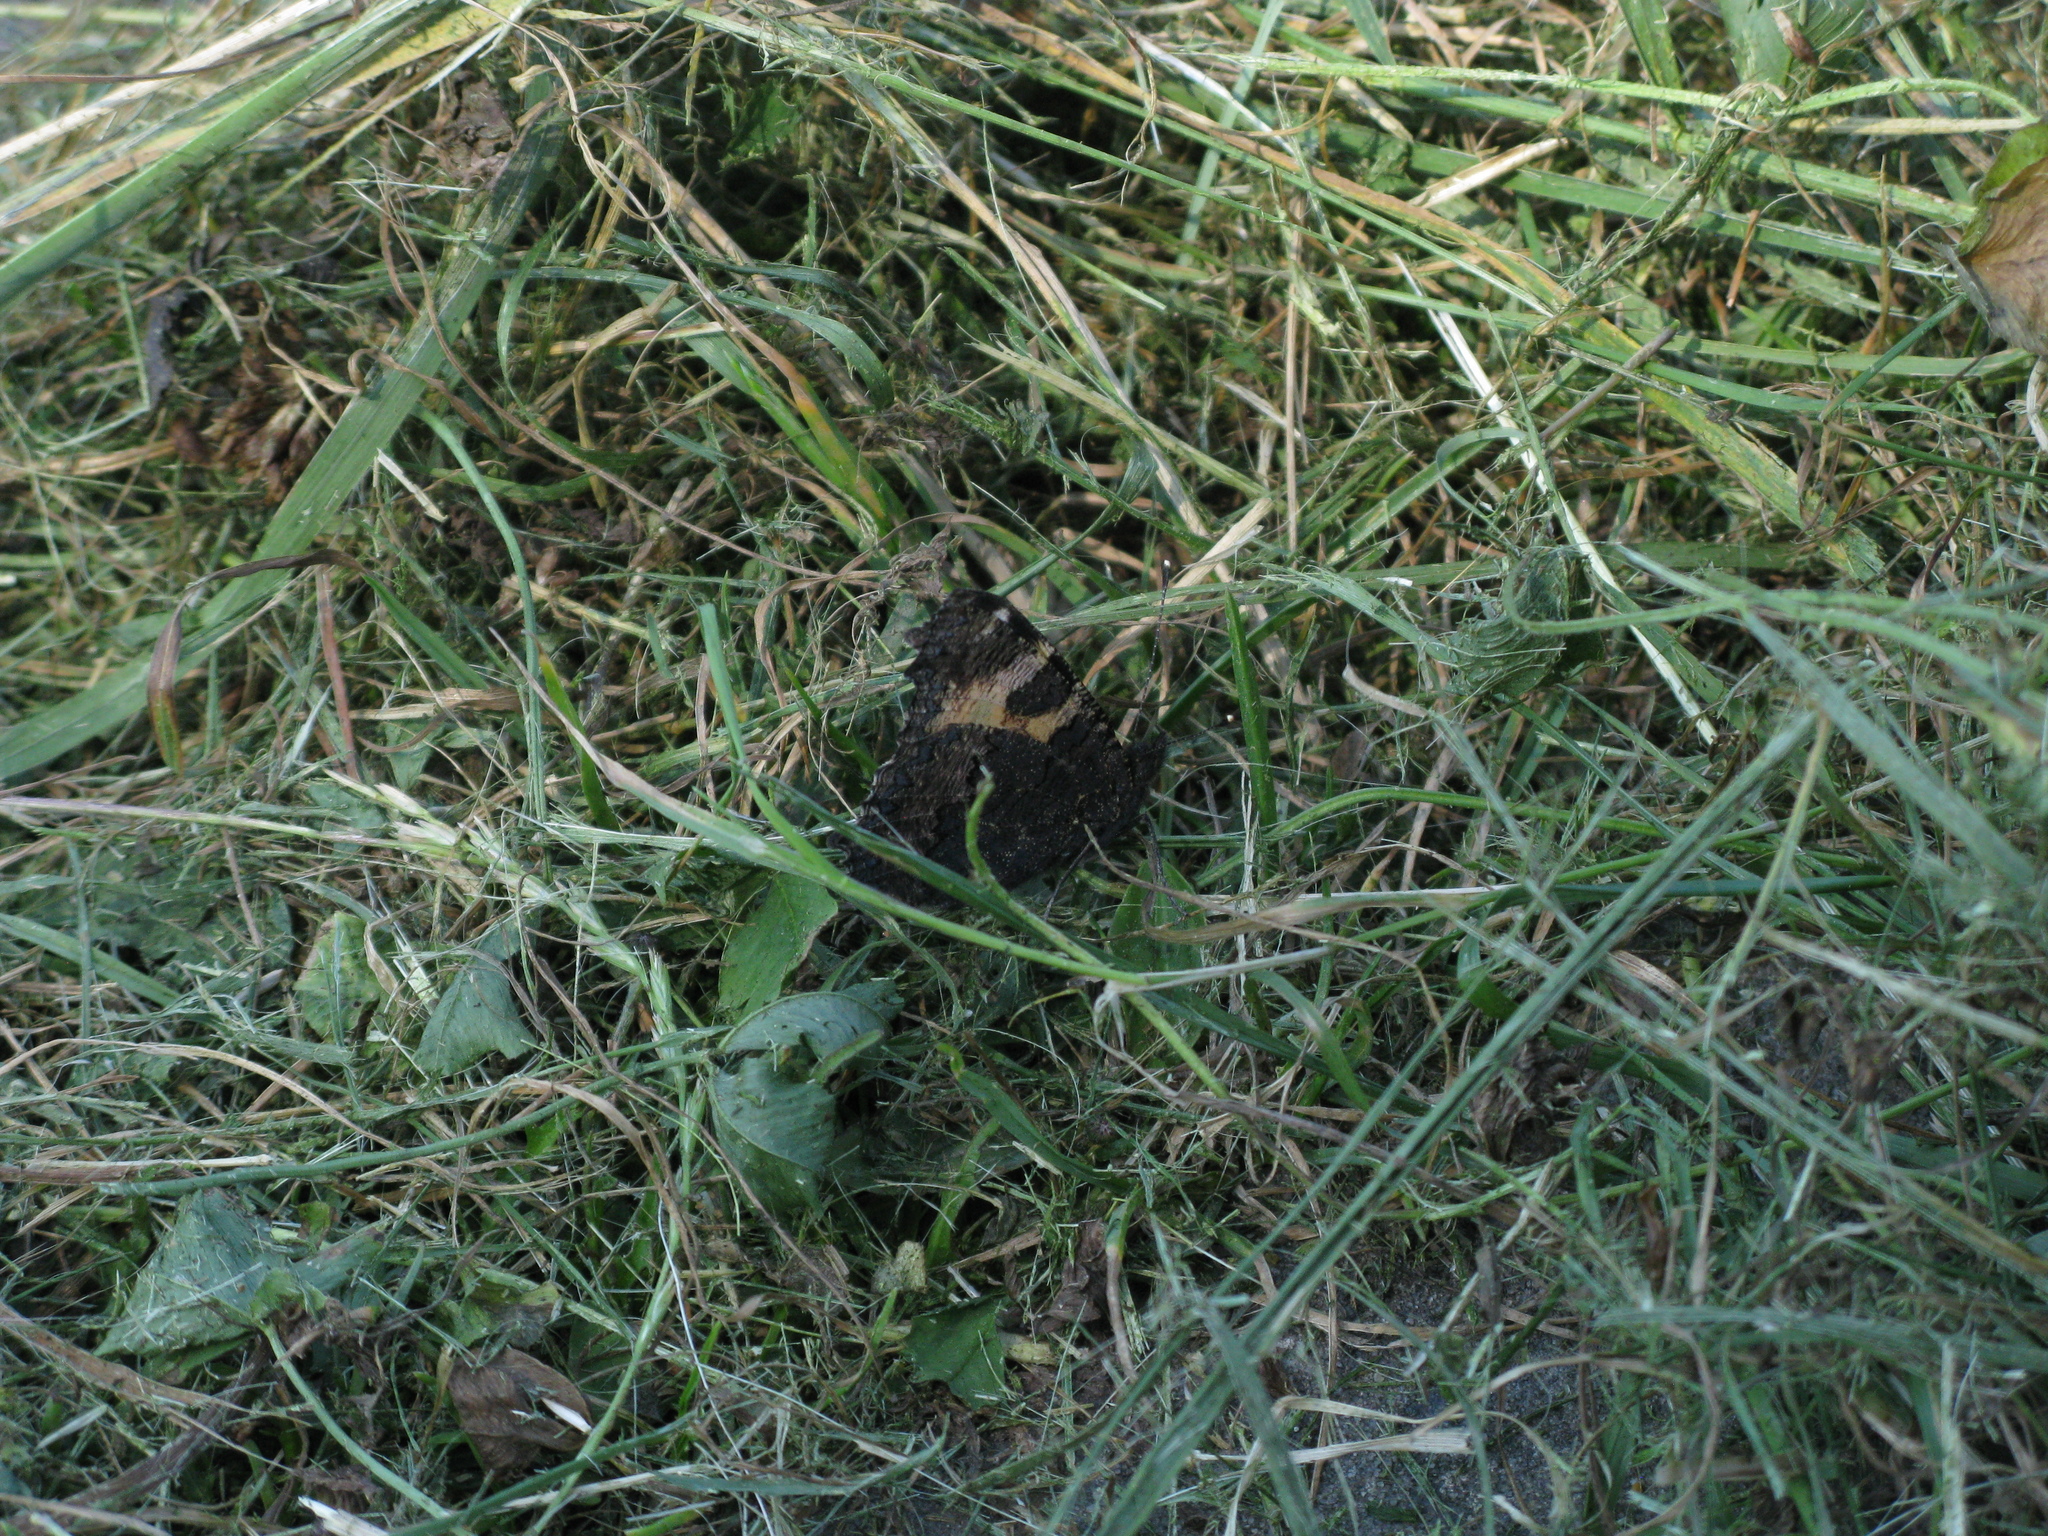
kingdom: Animalia
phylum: Arthropoda
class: Insecta
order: Lepidoptera
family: Nymphalidae
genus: Aglais
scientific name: Aglais urticae
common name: Small tortoiseshell
